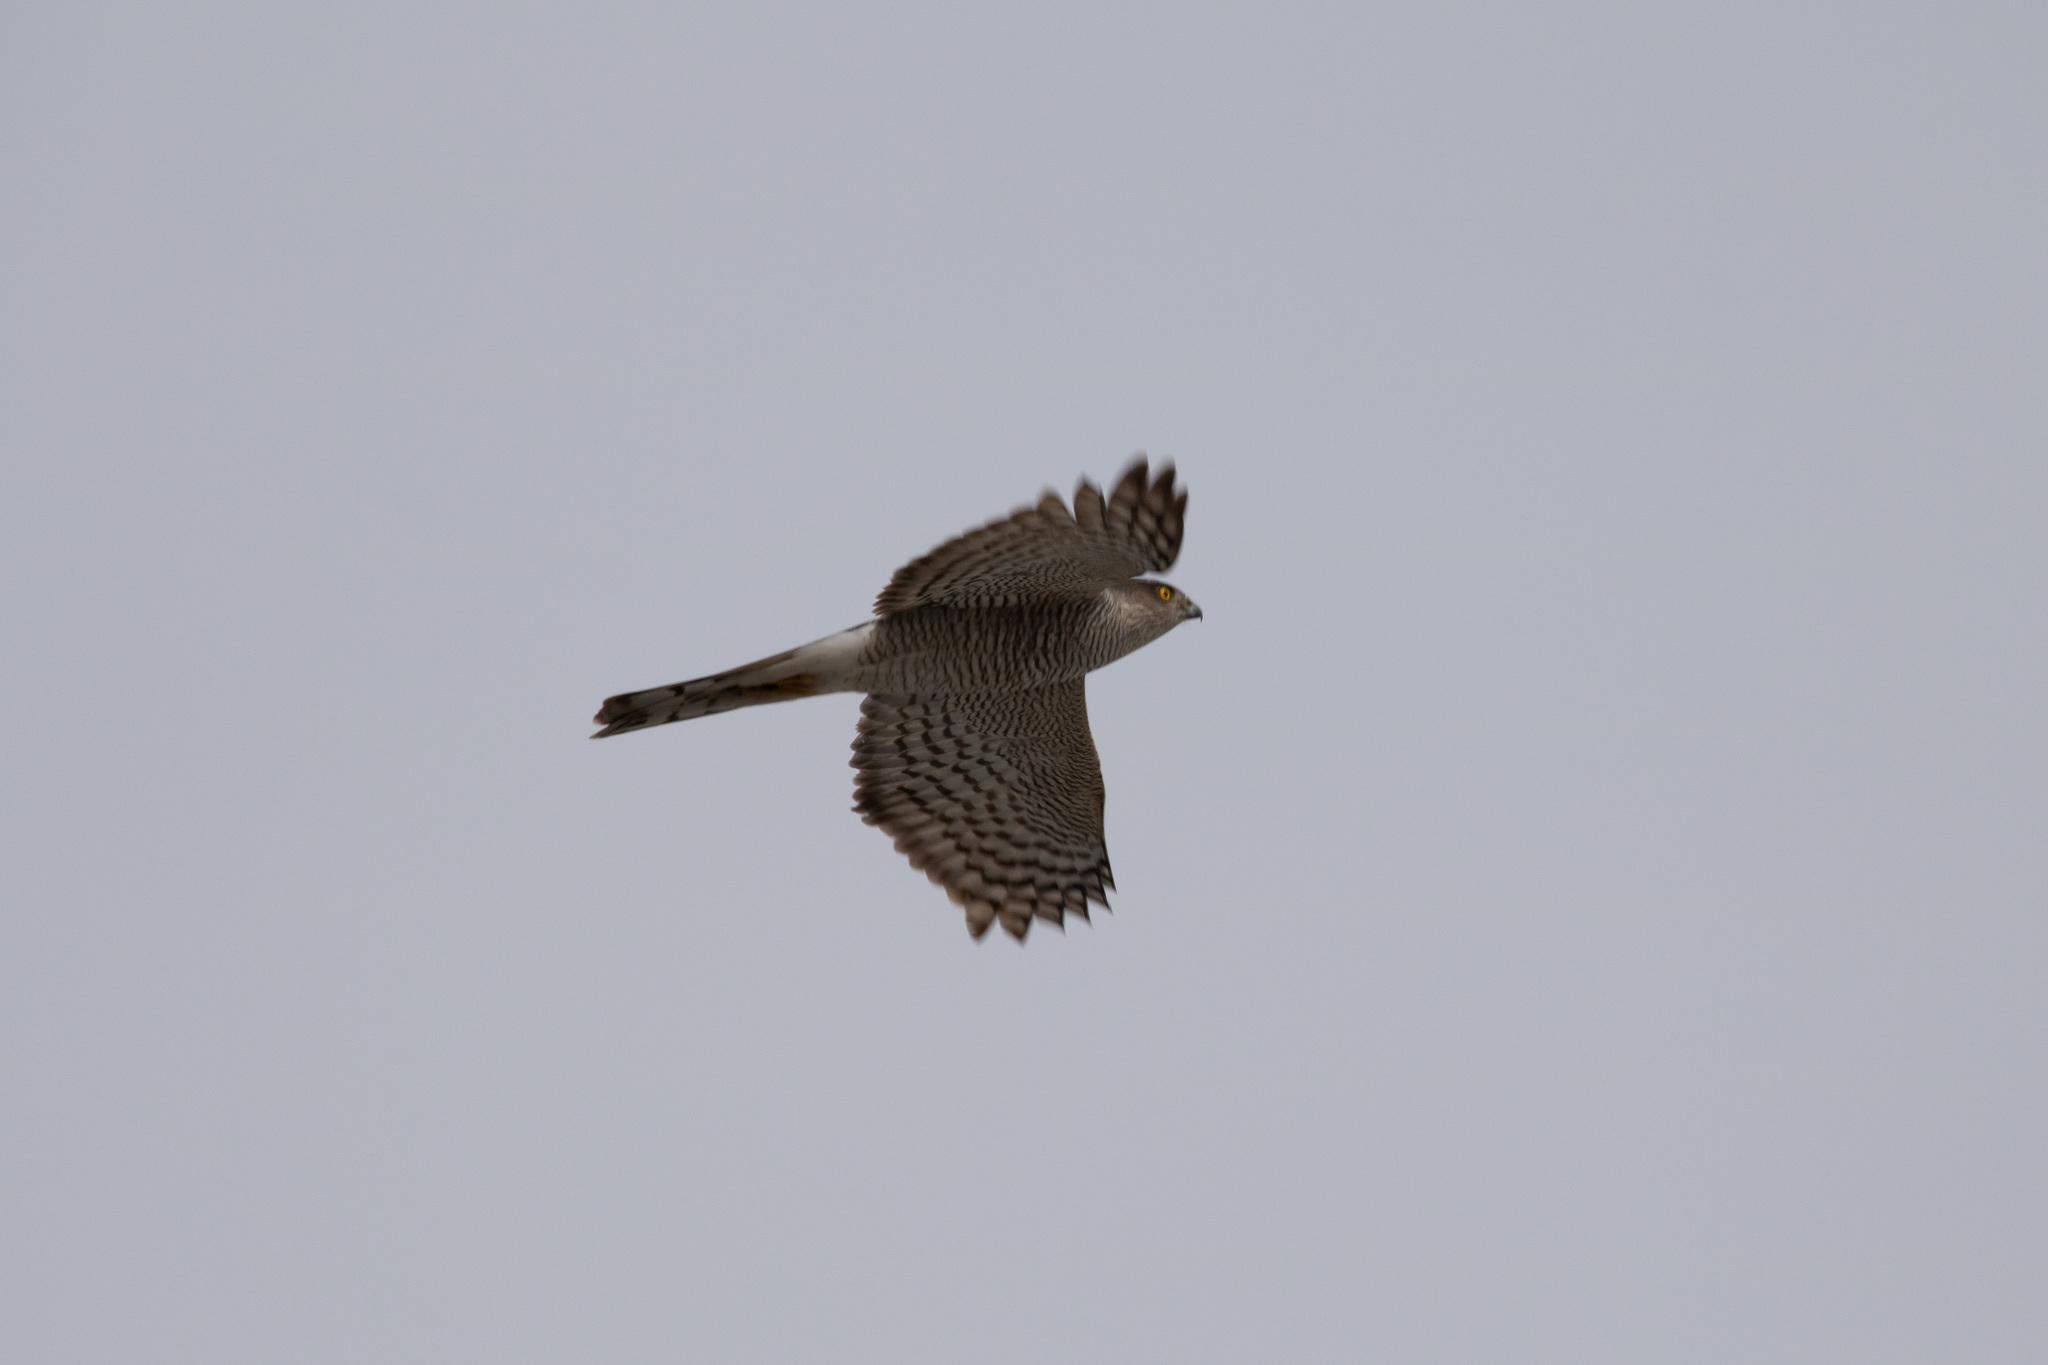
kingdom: Animalia
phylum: Chordata
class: Aves
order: Accipitriformes
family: Accipitridae
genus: Accipiter
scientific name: Accipiter nisus
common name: Eurasian sparrowhawk
